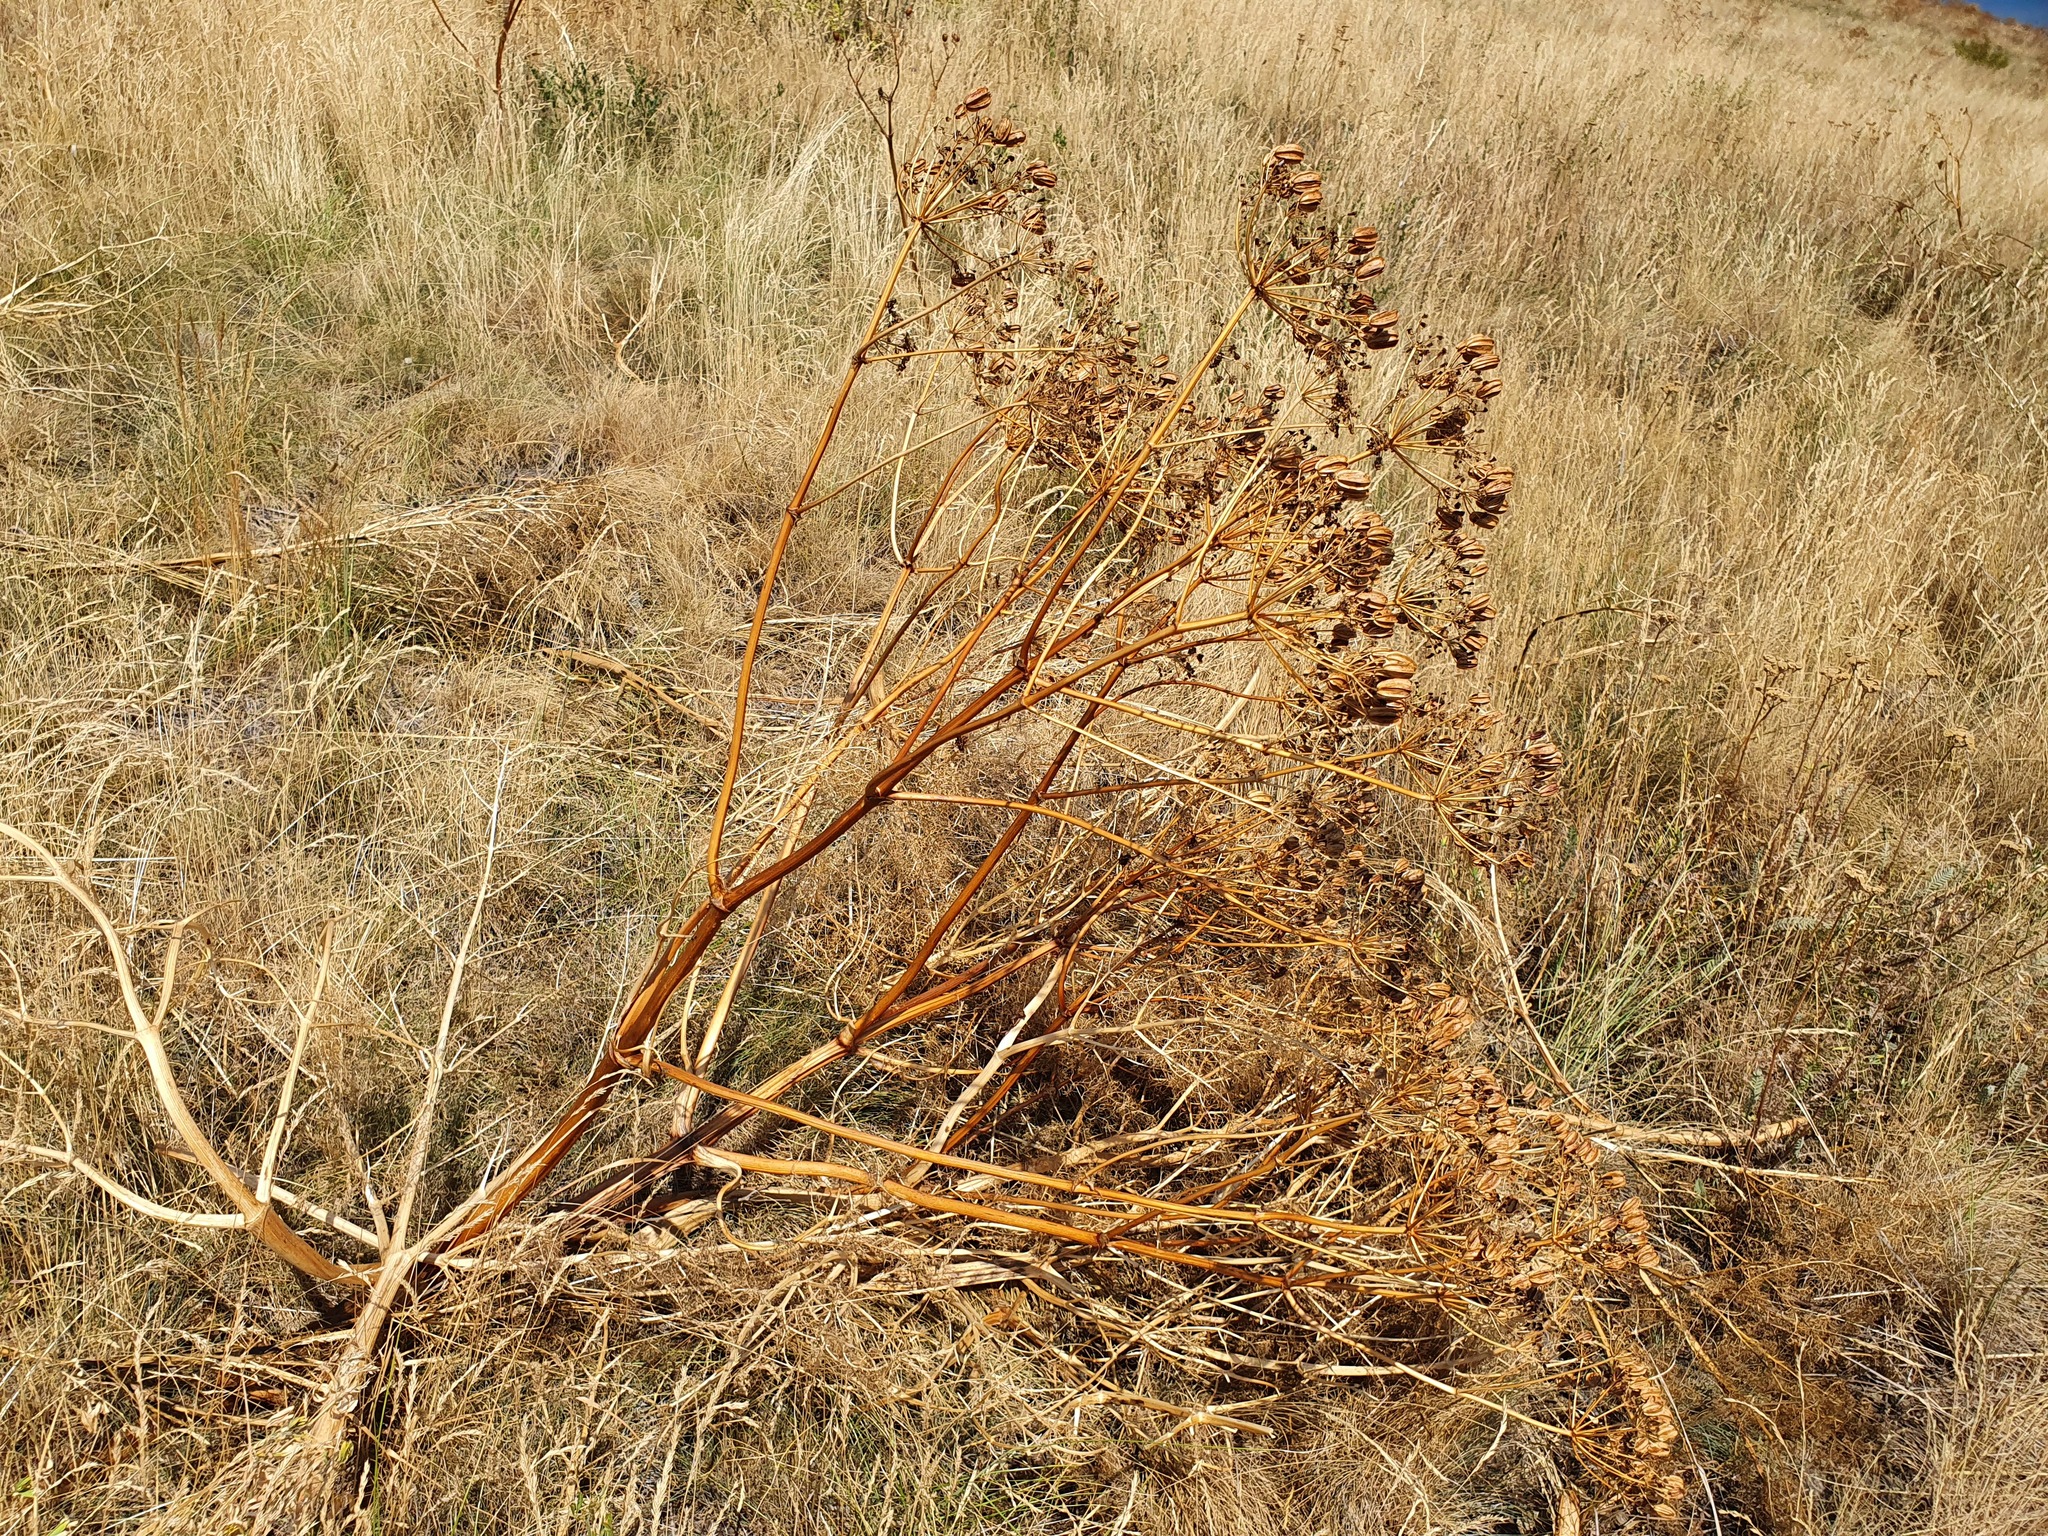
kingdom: Plantae
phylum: Tracheophyta
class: Magnoliopsida
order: Apiales
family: Apiaceae
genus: Prangos
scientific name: Prangos ferulacea
